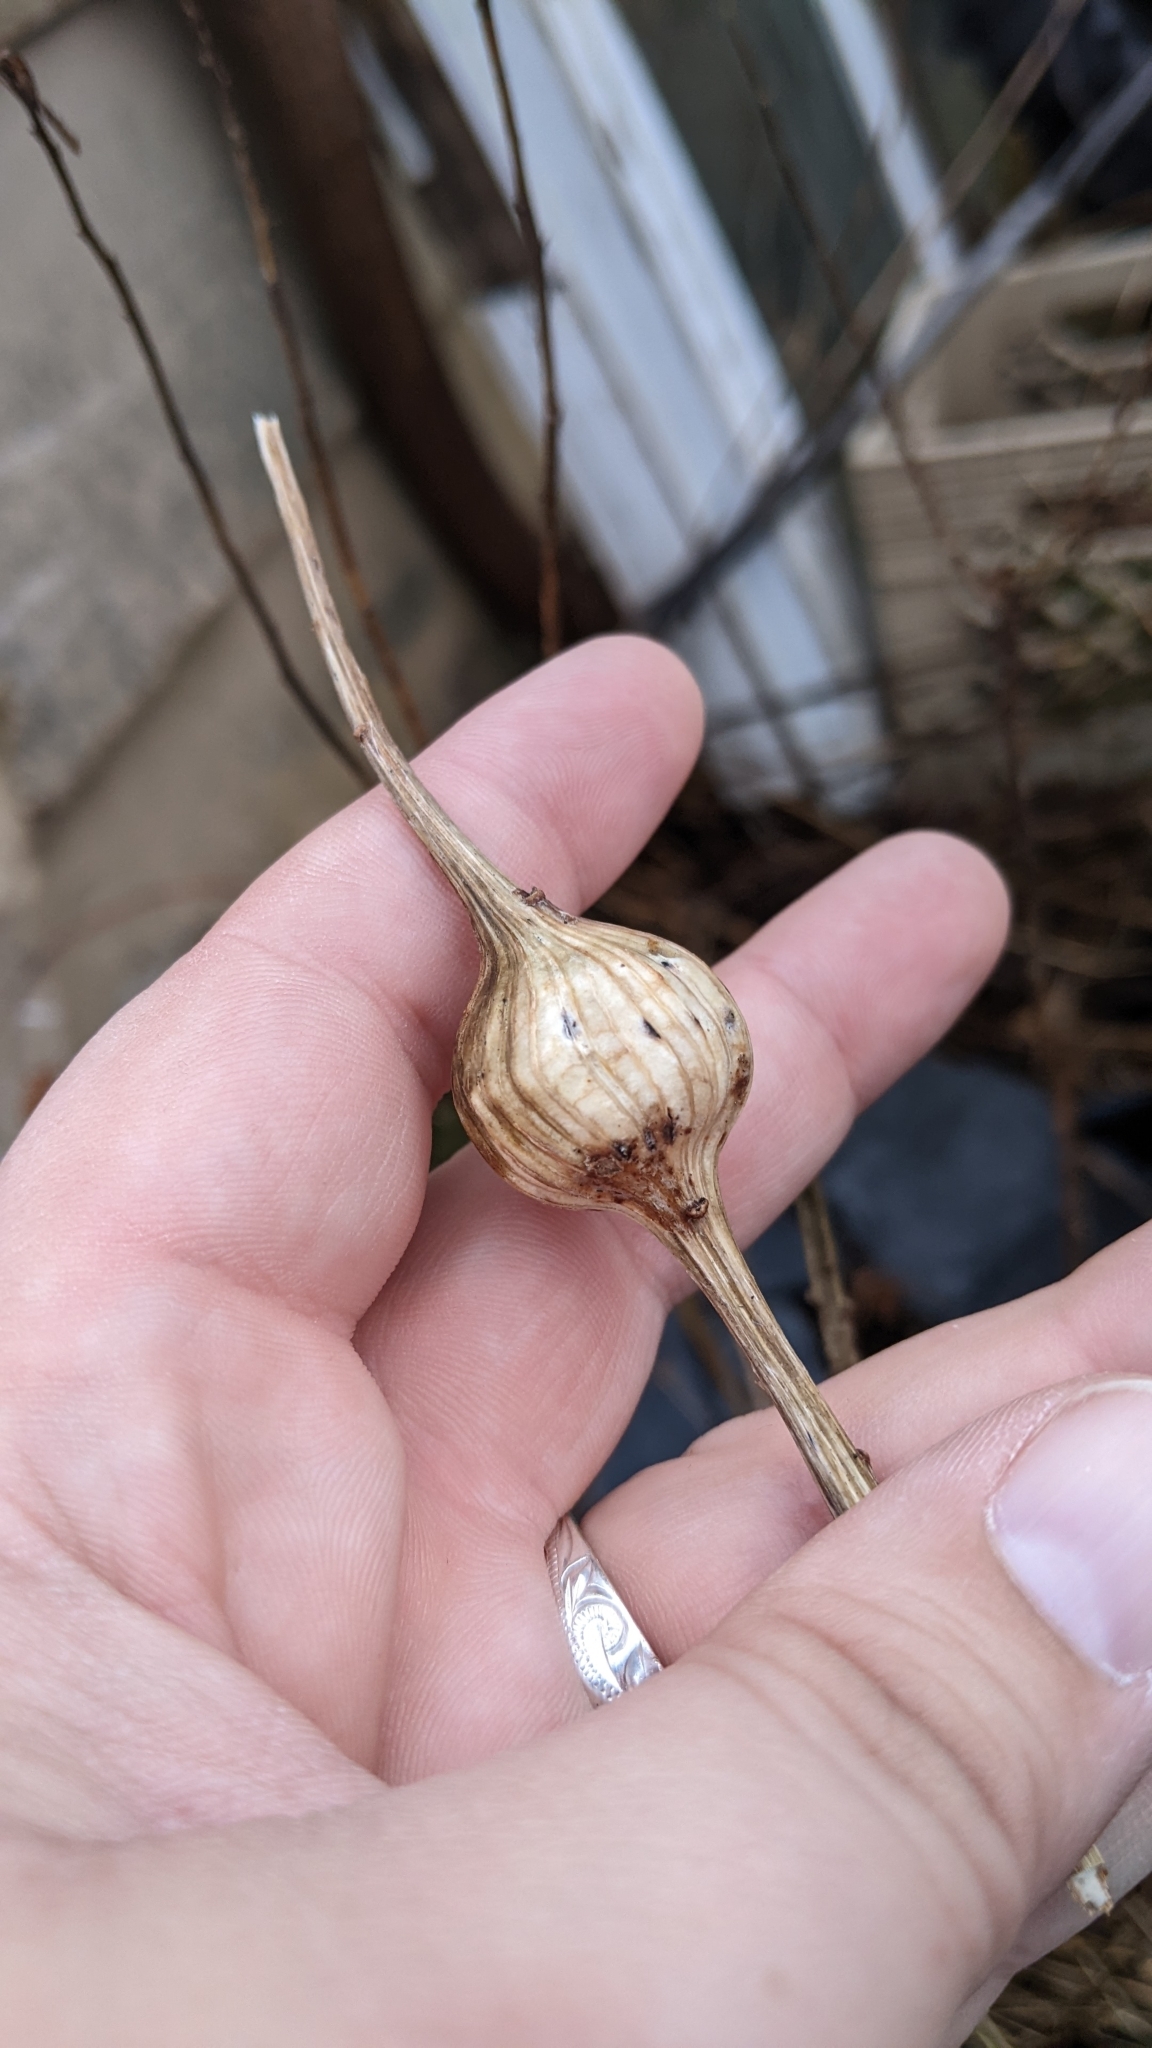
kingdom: Animalia
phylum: Arthropoda
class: Insecta
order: Diptera
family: Tephritidae
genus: Eurosta
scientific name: Eurosta solidaginis
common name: Goldenrod gall fly
